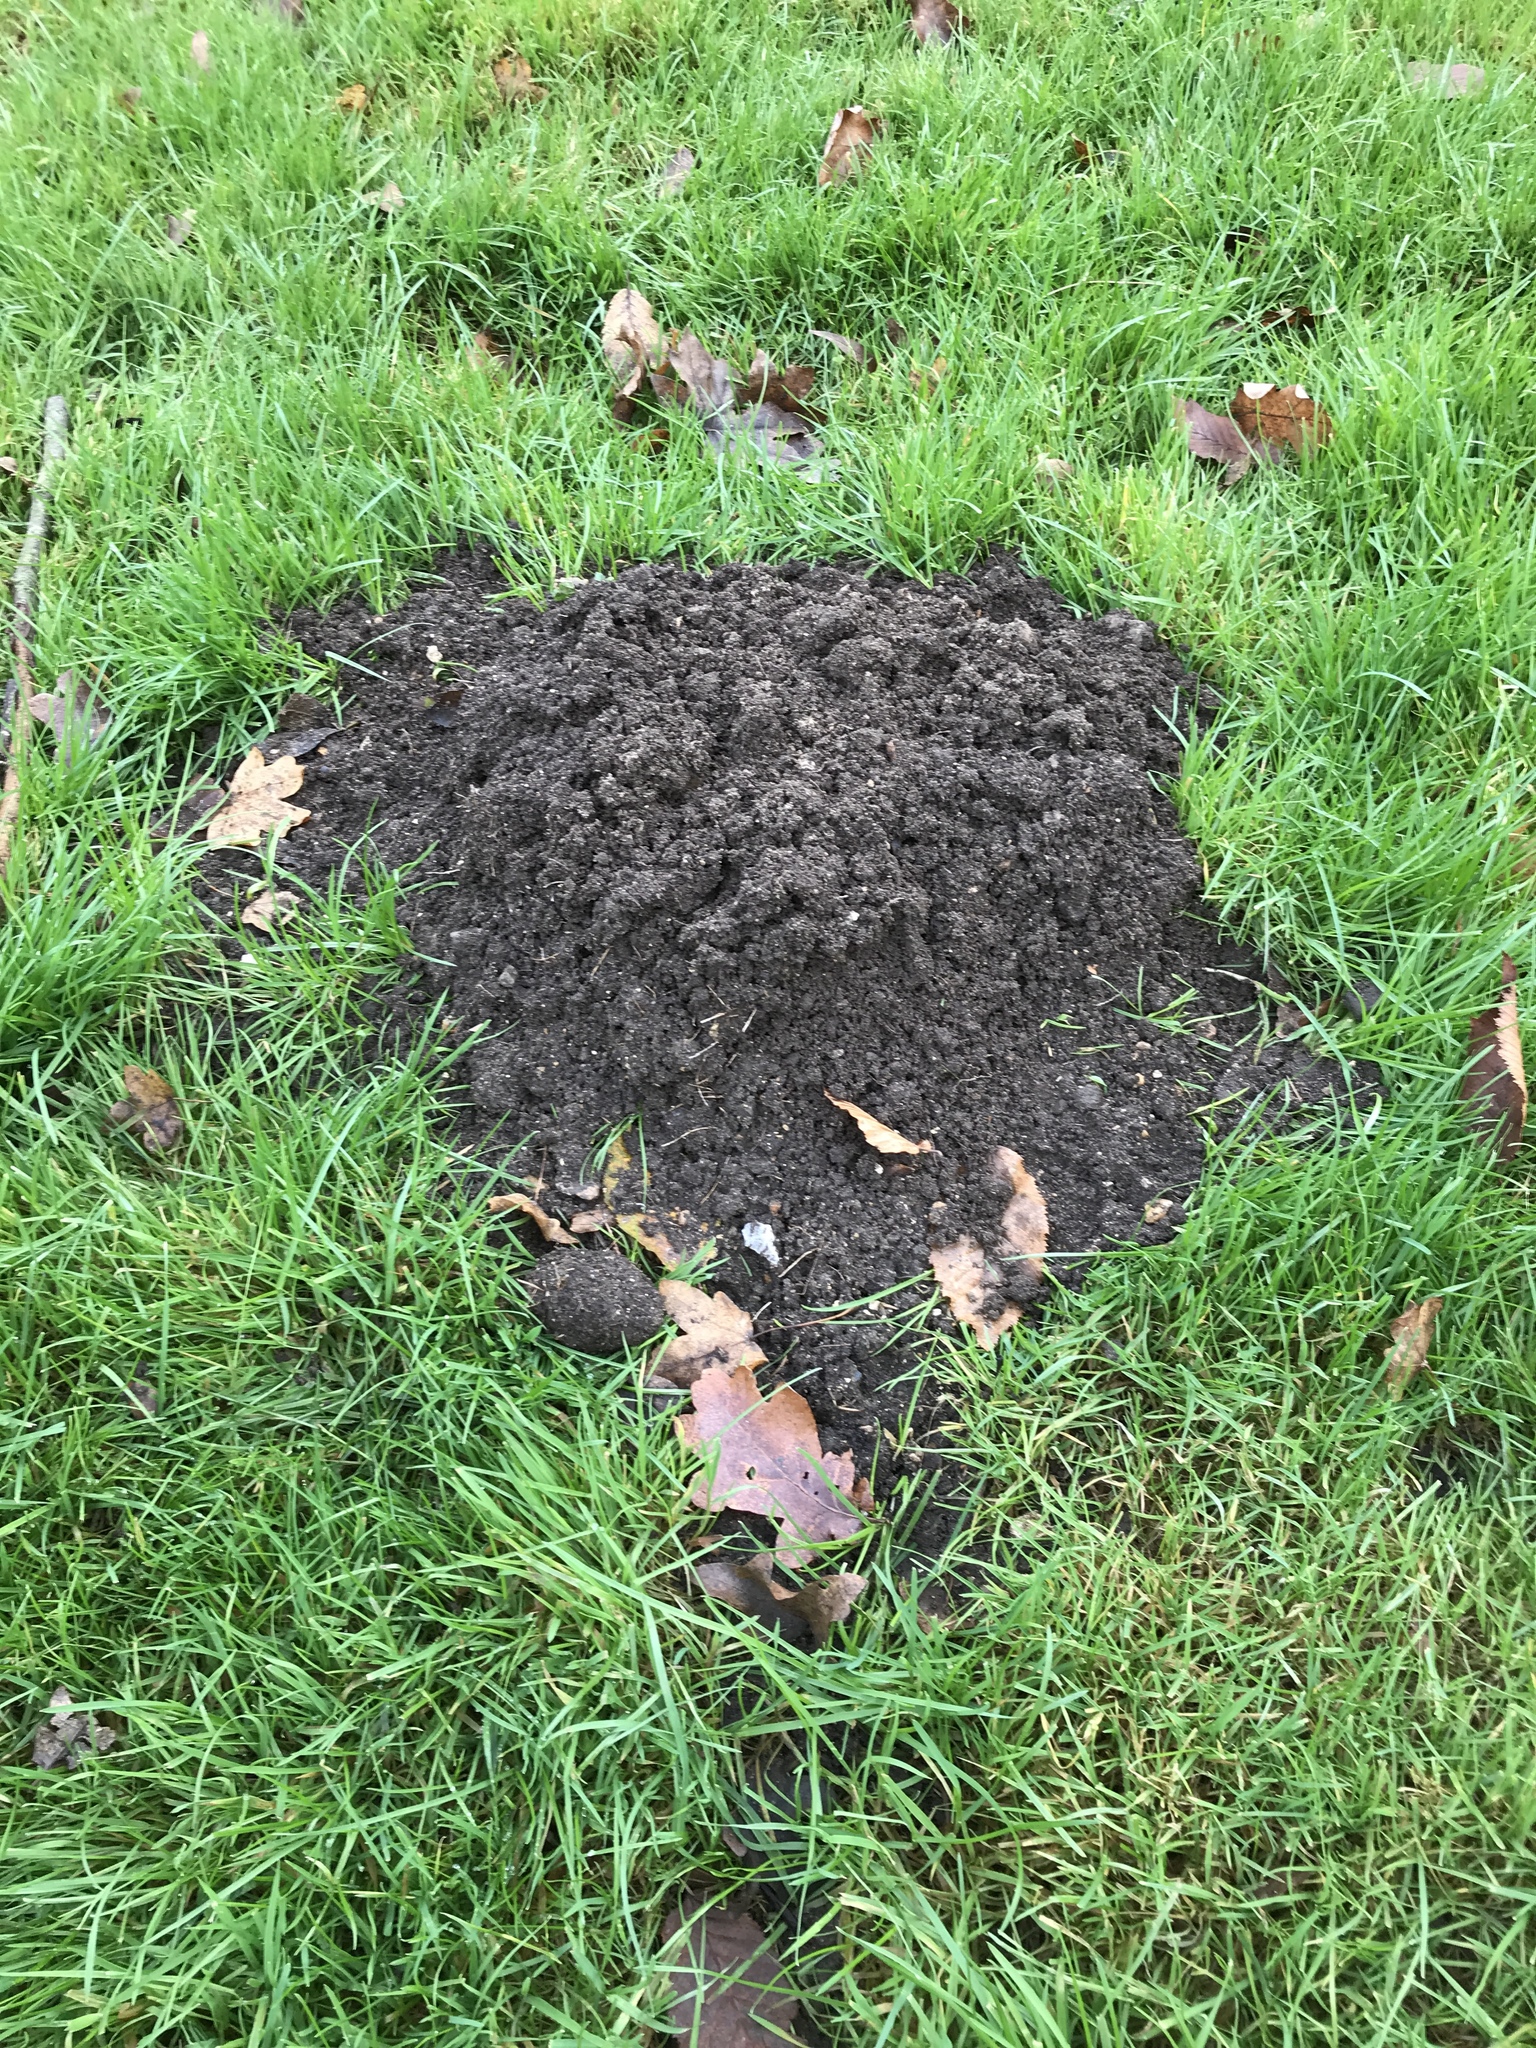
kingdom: Animalia
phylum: Chordata
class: Mammalia
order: Soricomorpha
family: Talpidae
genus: Talpa
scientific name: Talpa europaea
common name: European mole
